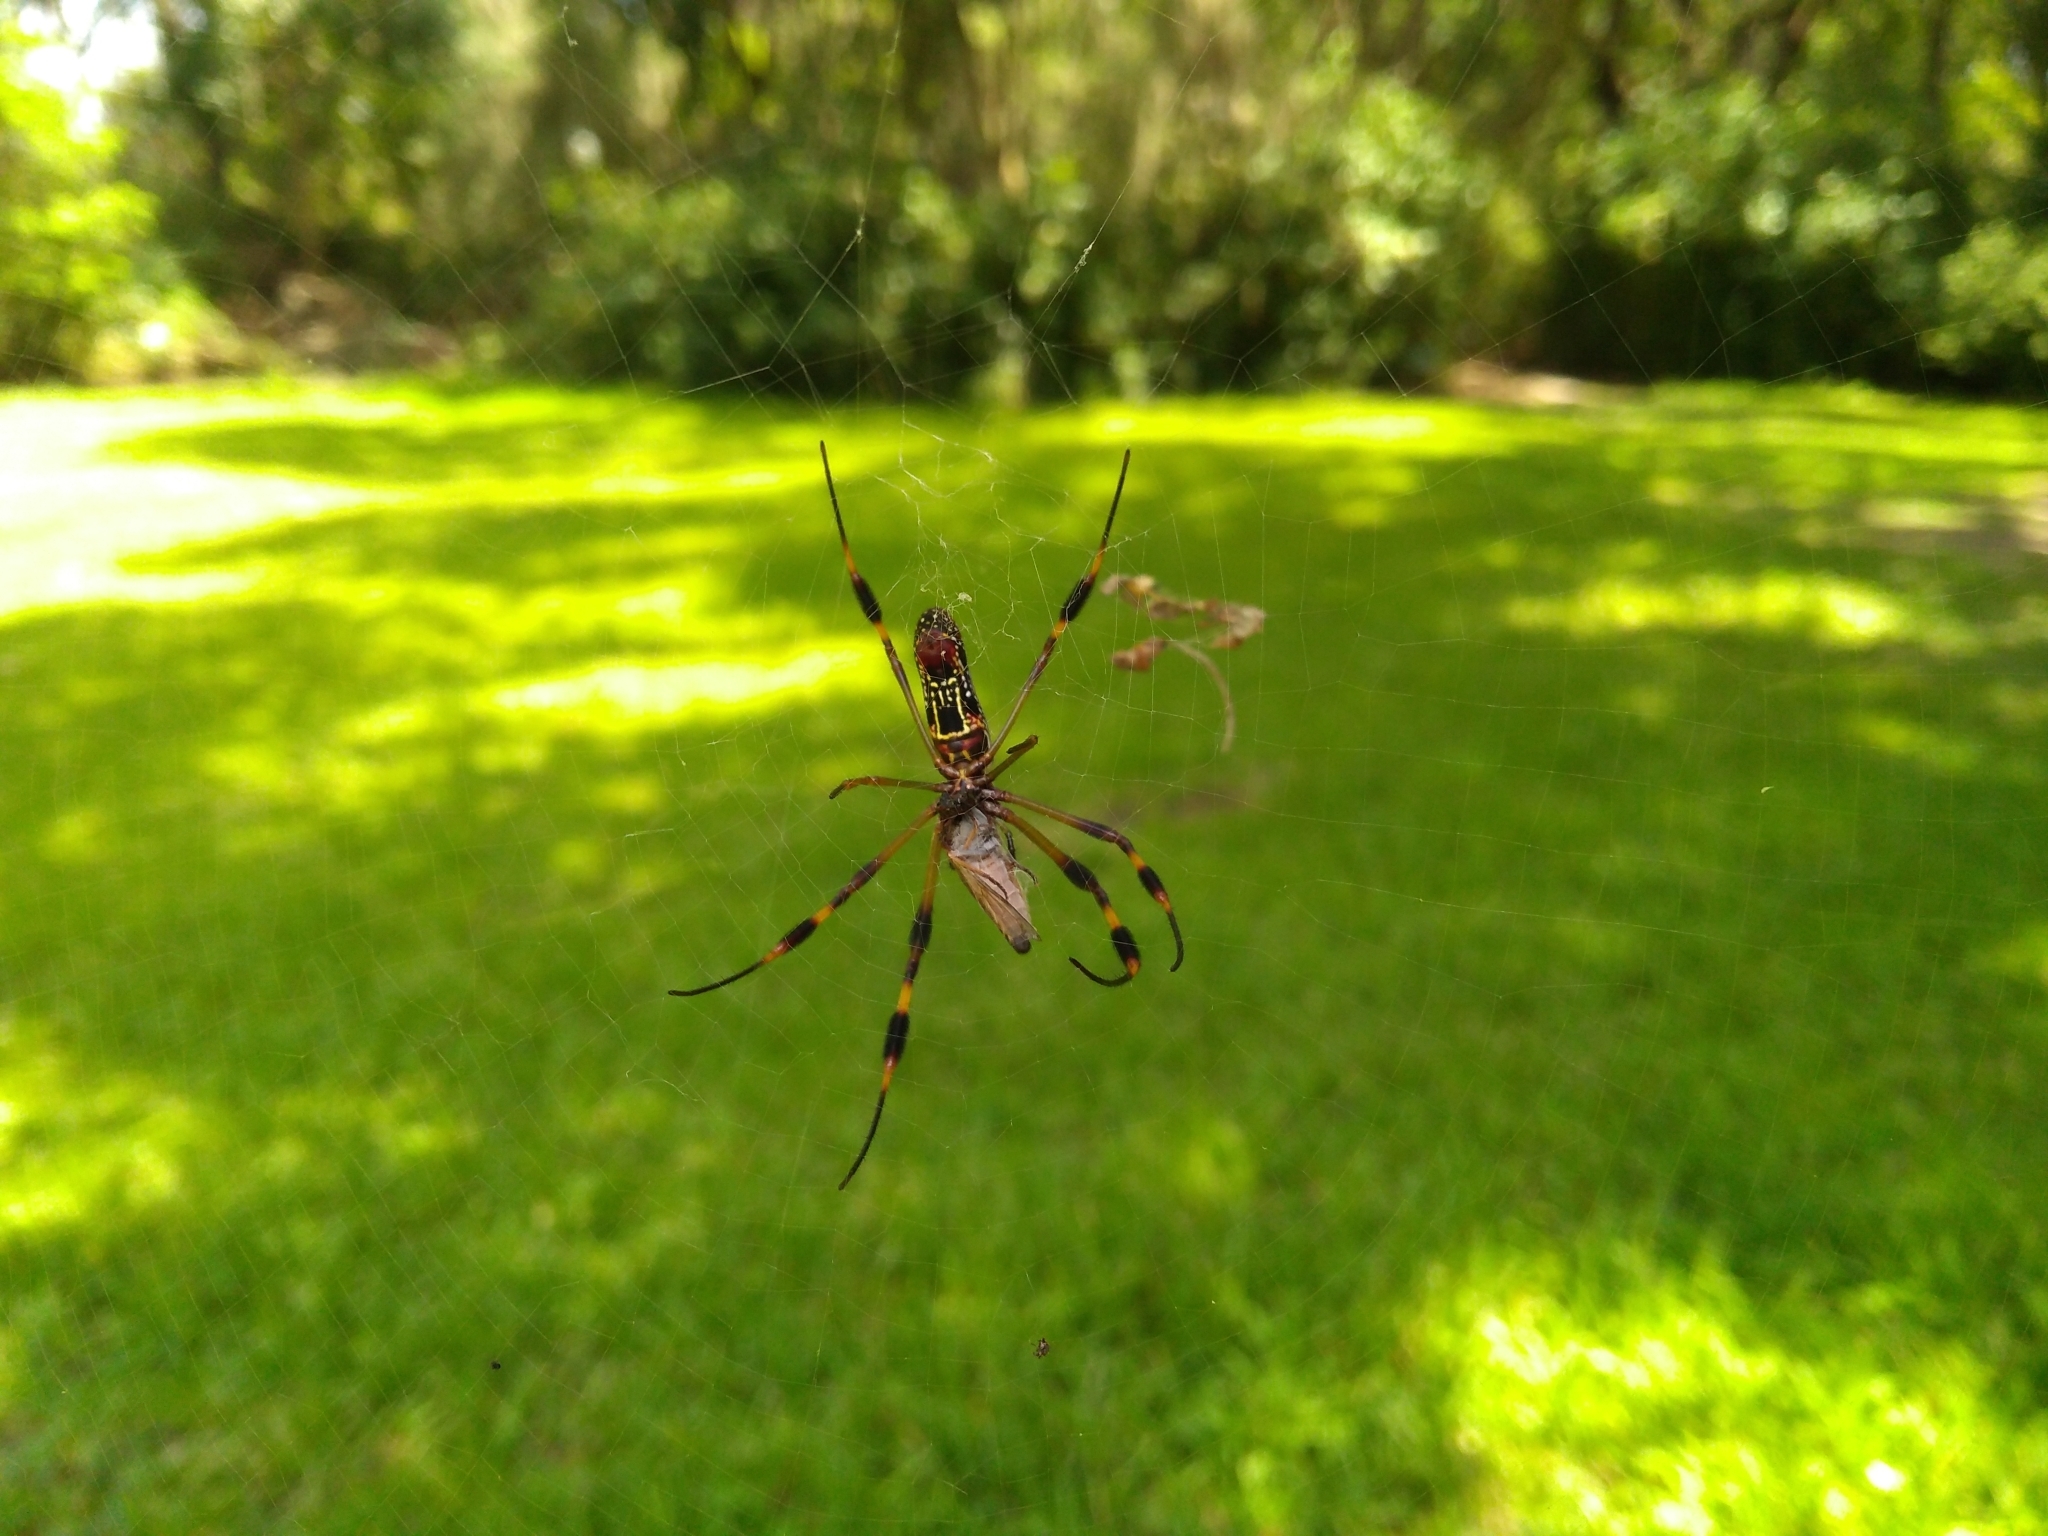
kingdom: Animalia
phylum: Arthropoda
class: Arachnida
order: Araneae
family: Araneidae
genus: Trichonephila
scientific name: Trichonephila clavipes
